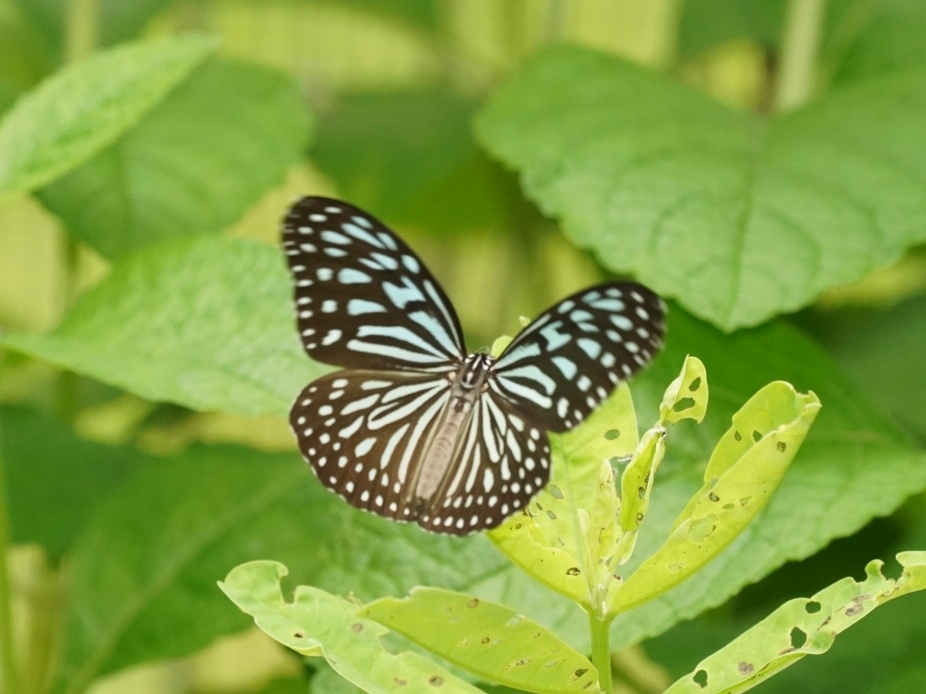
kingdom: Animalia
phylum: Arthropoda
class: Insecta
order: Lepidoptera
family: Nymphalidae
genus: Ideopsis
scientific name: Ideopsis vulgaris
